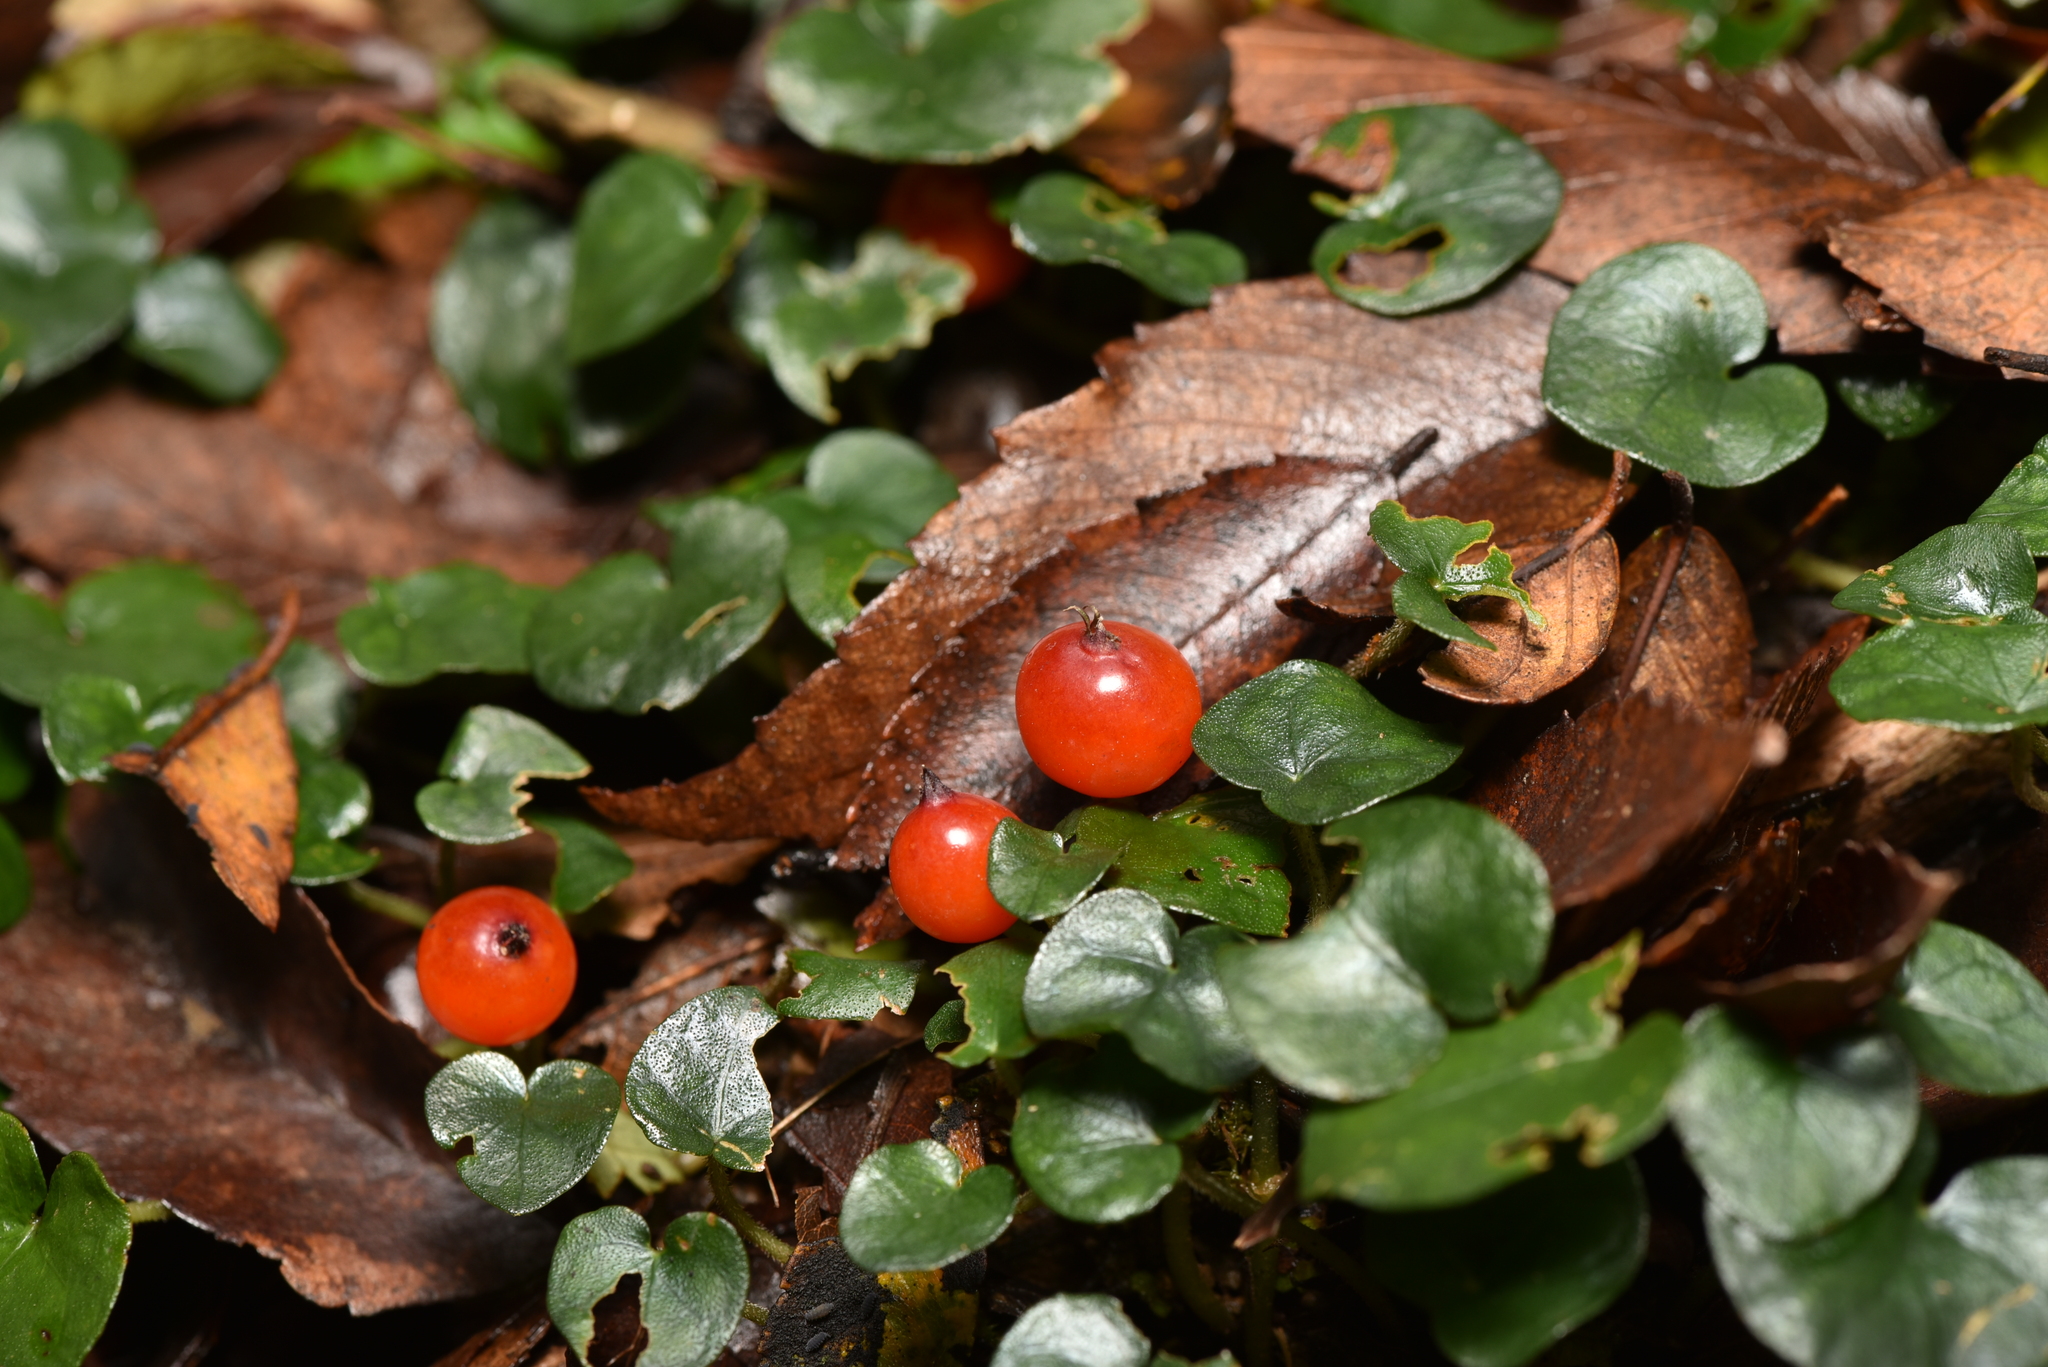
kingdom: Plantae
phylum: Tracheophyta
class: Magnoliopsida
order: Gentianales
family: Rubiaceae
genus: Geophila
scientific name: Geophila herbacea
